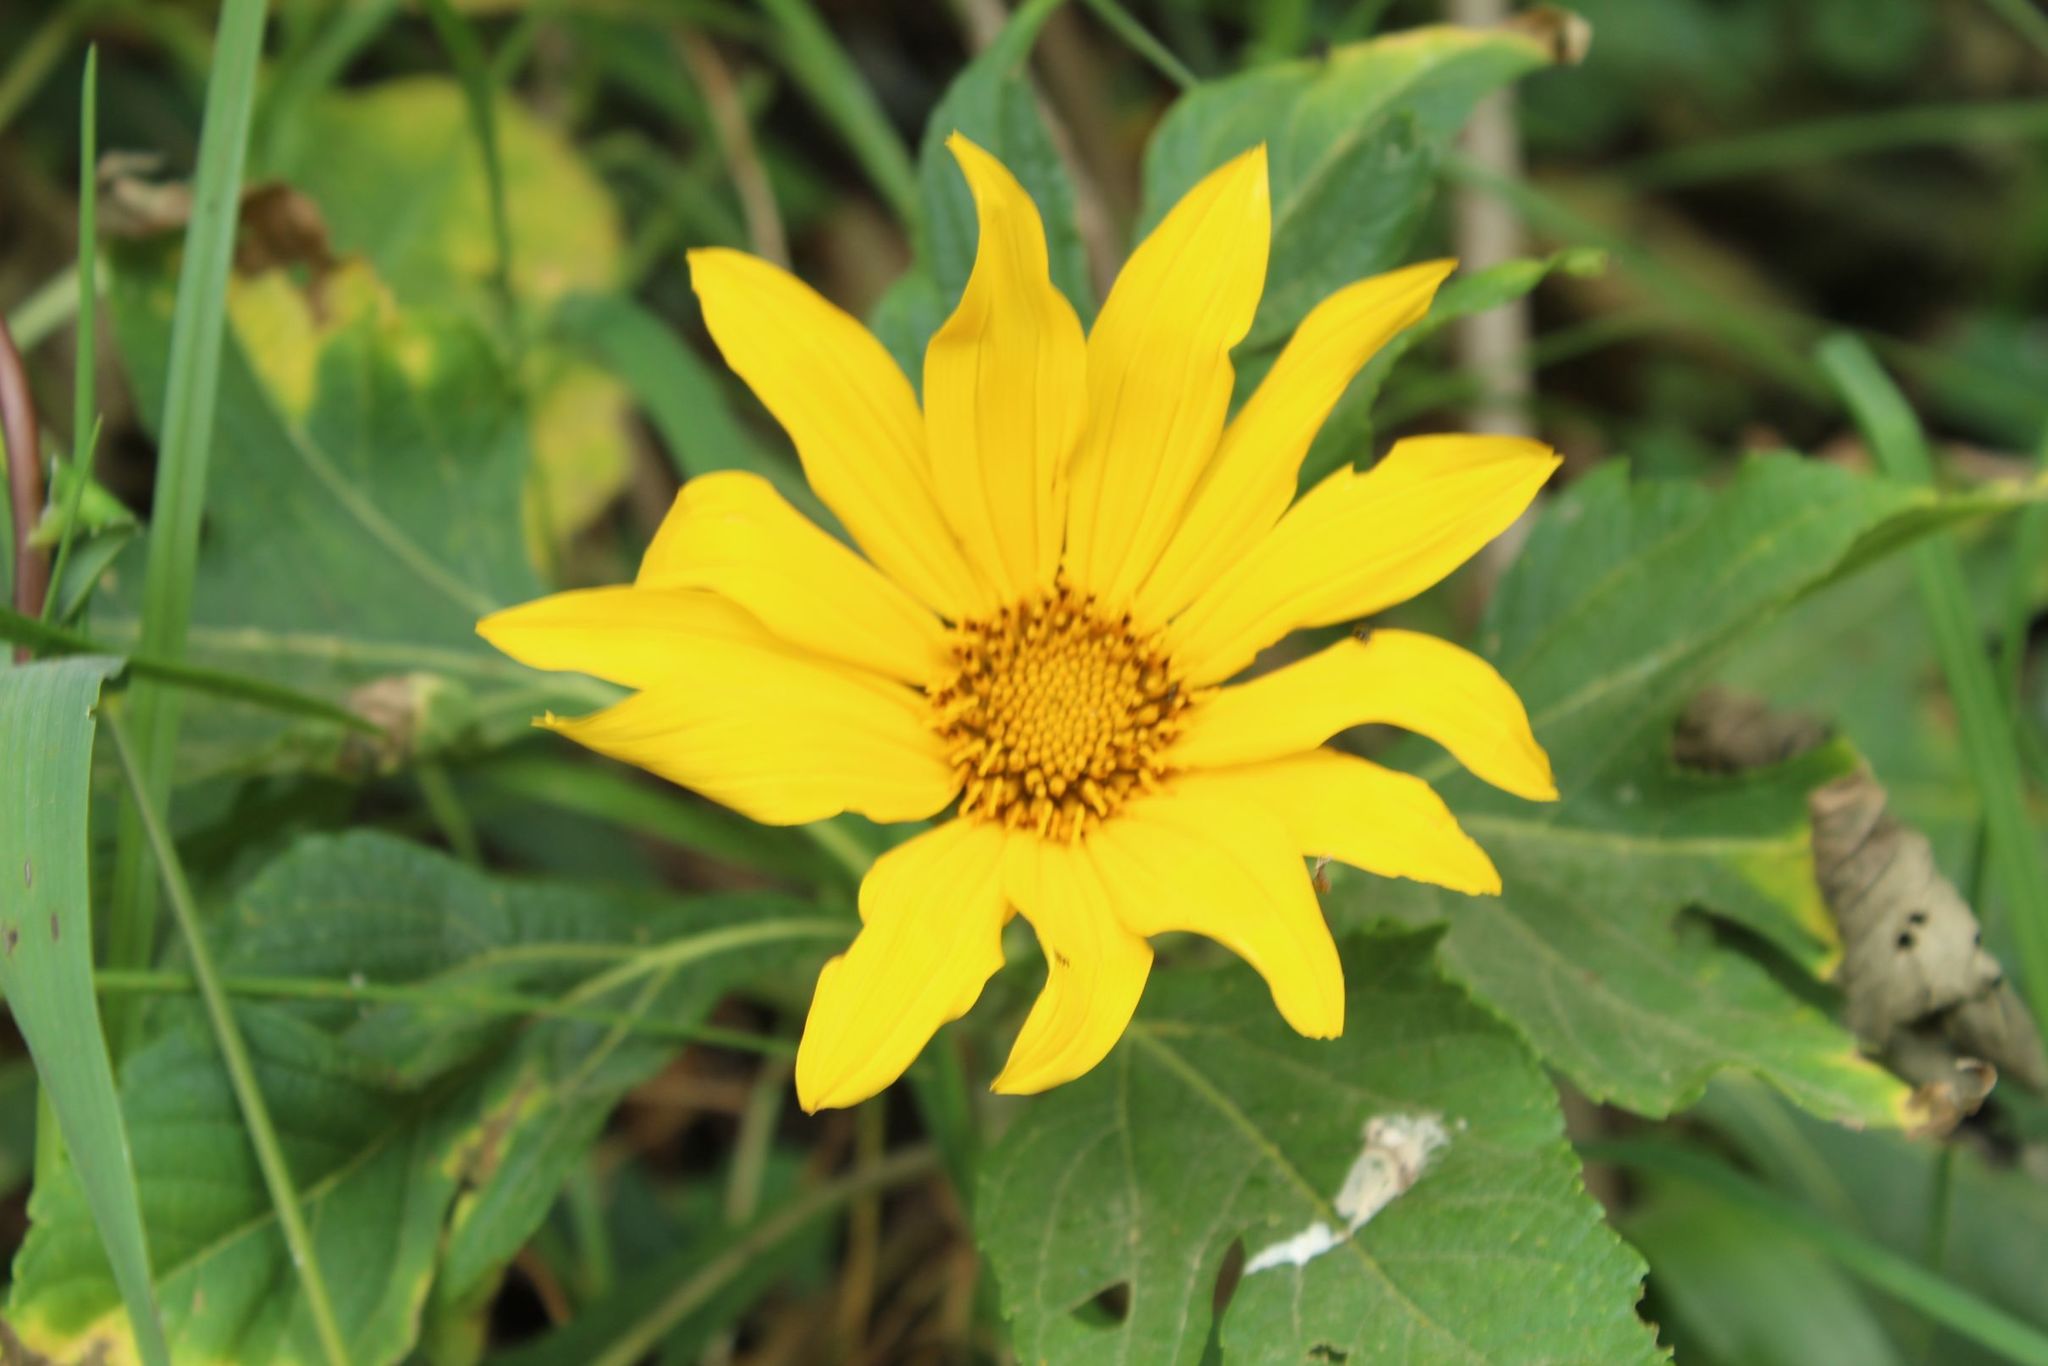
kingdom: Plantae
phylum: Tracheophyta
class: Magnoliopsida
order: Asterales
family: Asteraceae
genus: Tithonia
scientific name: Tithonia diversifolia
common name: Tree marigold
